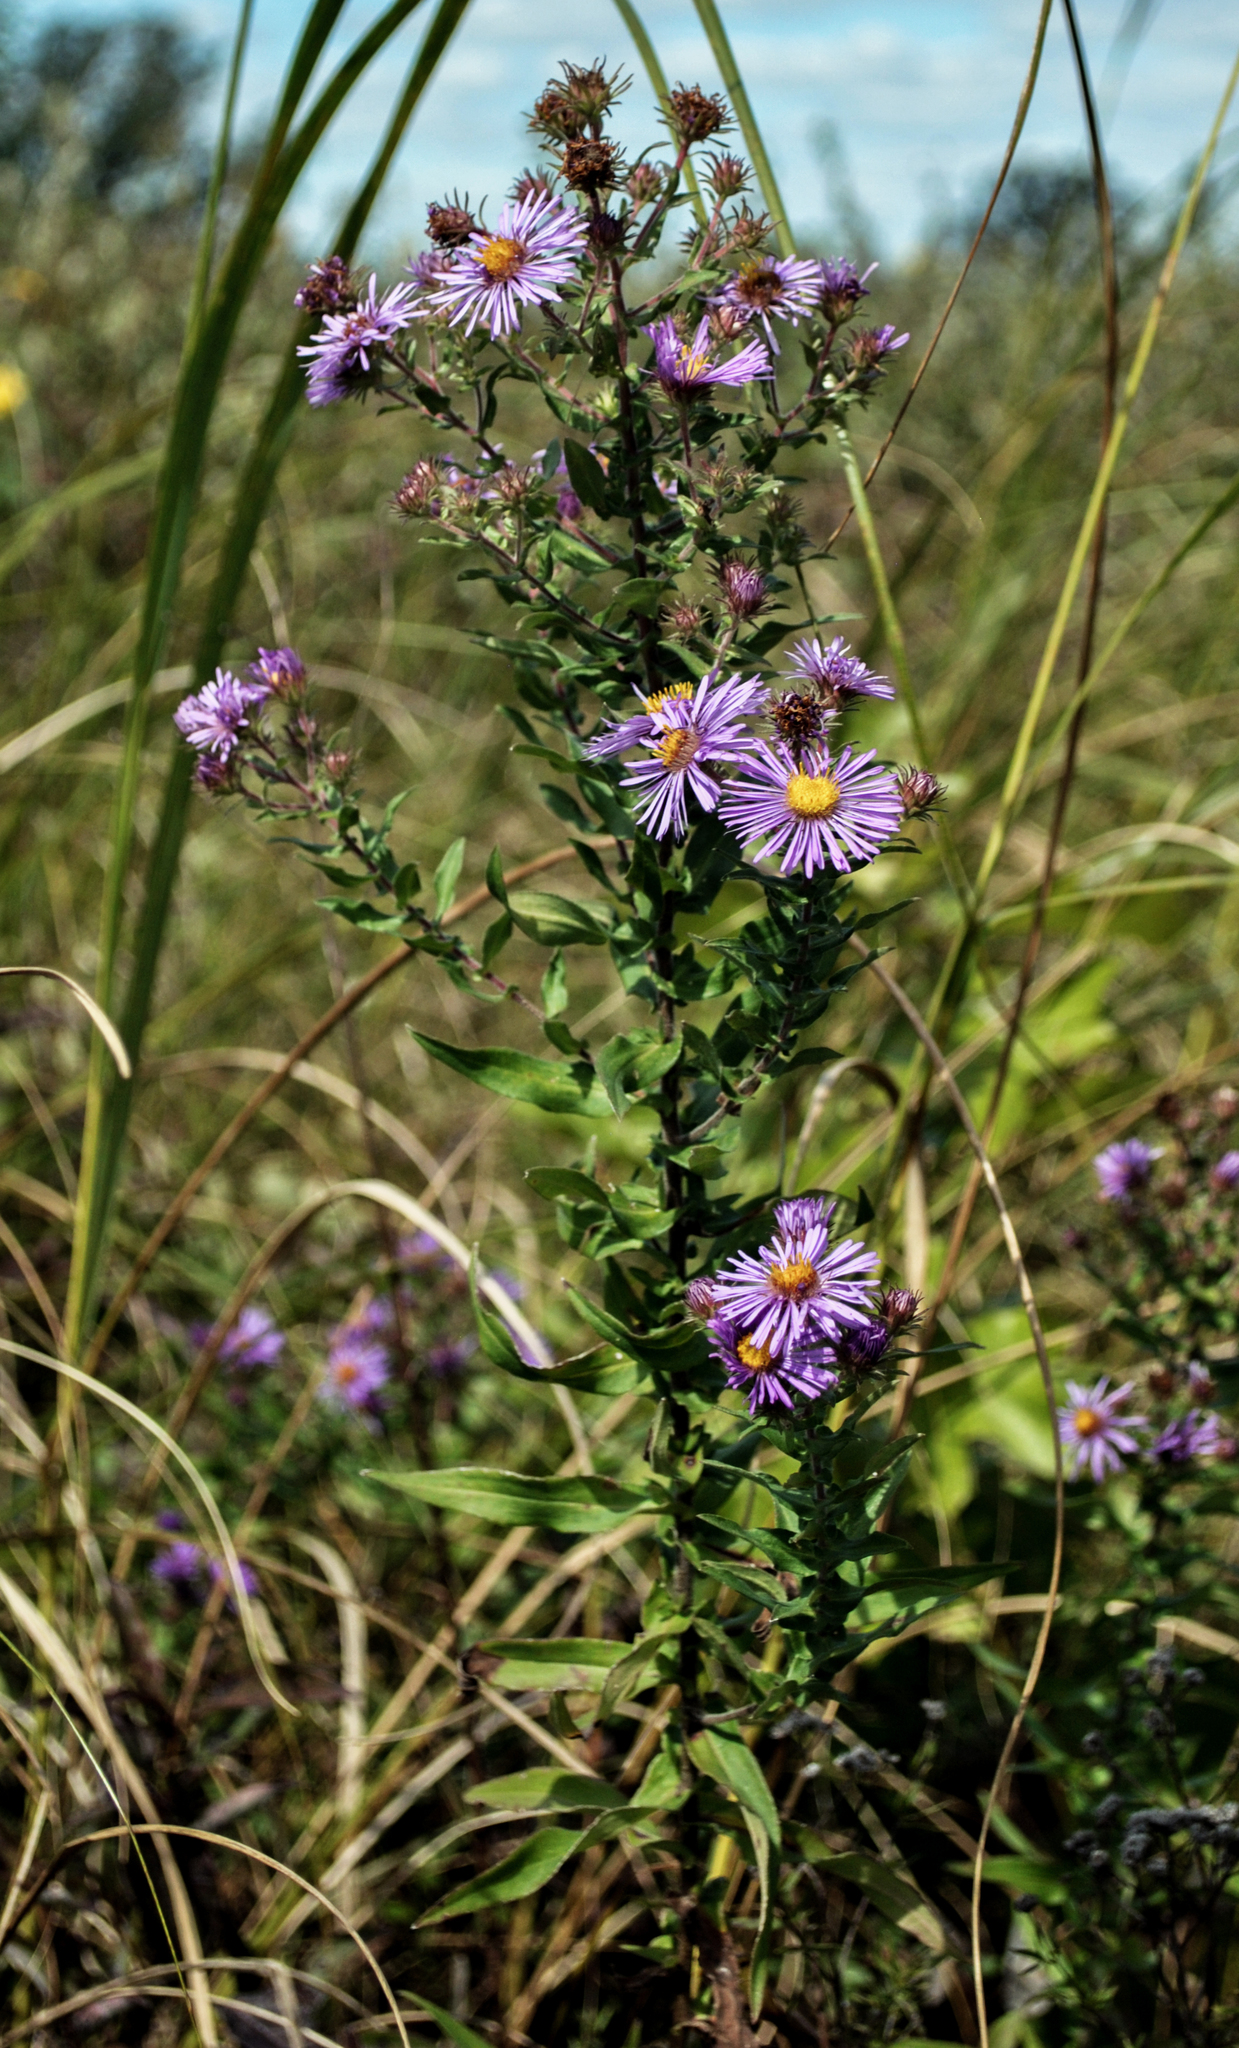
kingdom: Plantae
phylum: Tracheophyta
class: Magnoliopsida
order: Asterales
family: Asteraceae
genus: Symphyotrichum
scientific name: Symphyotrichum novae-angliae
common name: Michaelmas daisy
